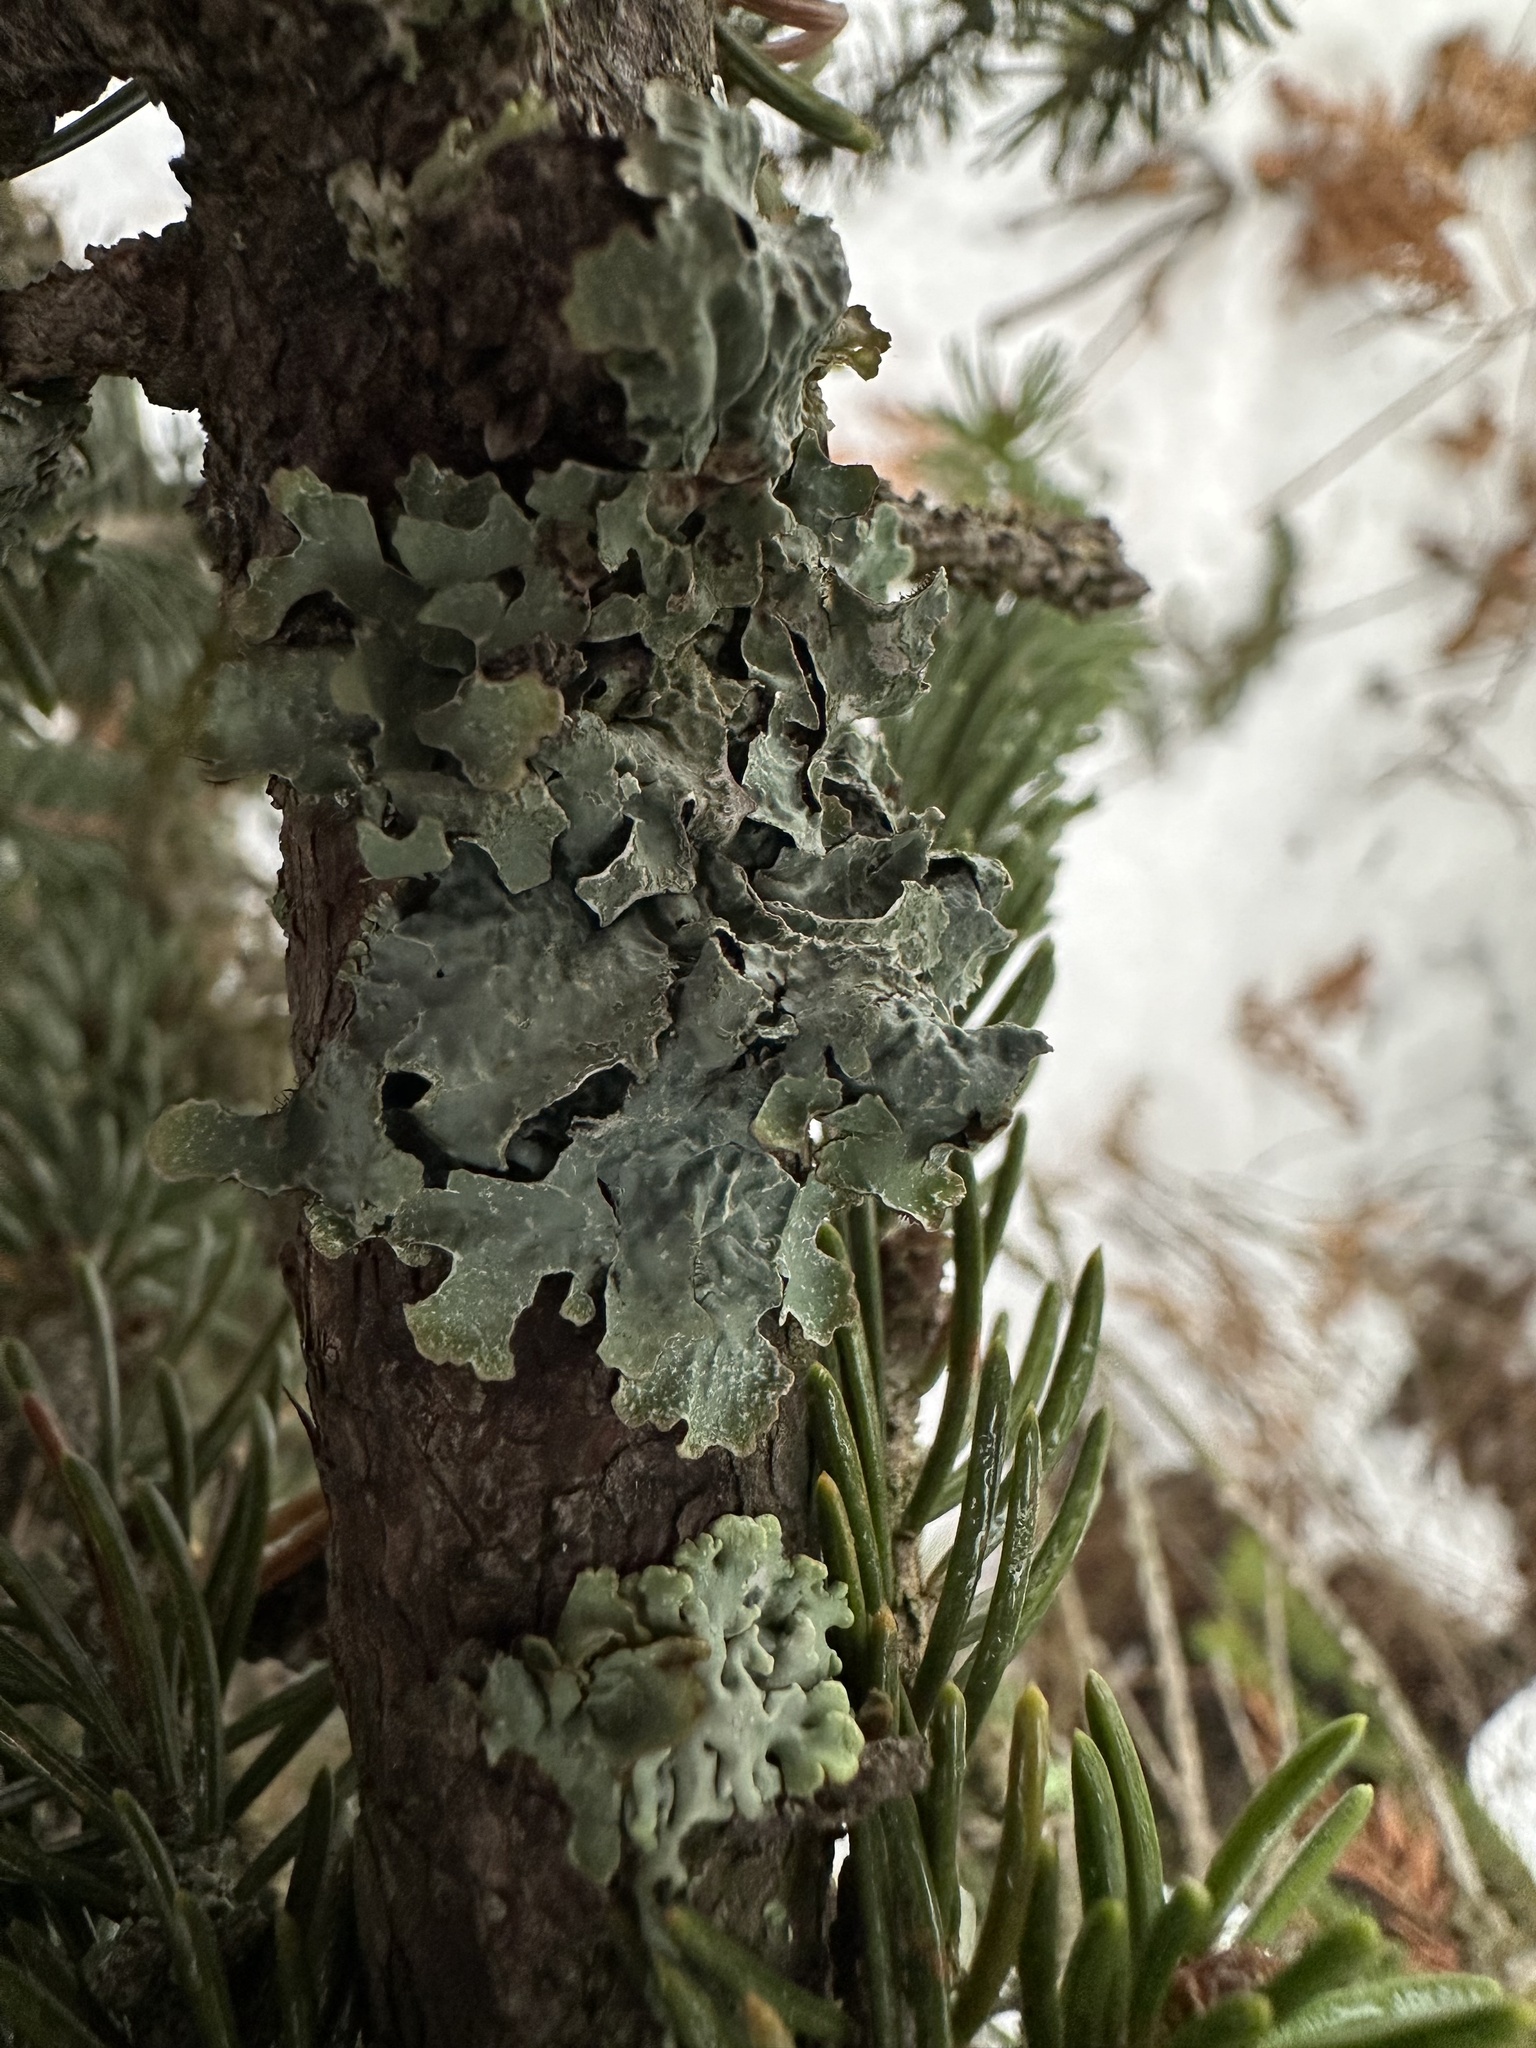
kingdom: Fungi
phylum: Ascomycota
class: Lecanoromycetes
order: Lecanorales
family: Parmeliaceae
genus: Parmelia
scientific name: Parmelia sulcata
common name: Netted shield lichen
